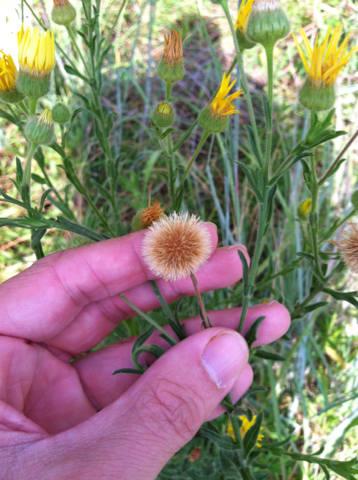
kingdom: Plantae
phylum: Tracheophyta
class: Magnoliopsida
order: Asterales
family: Asteraceae
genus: Bradburia
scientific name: Bradburia pilosa
